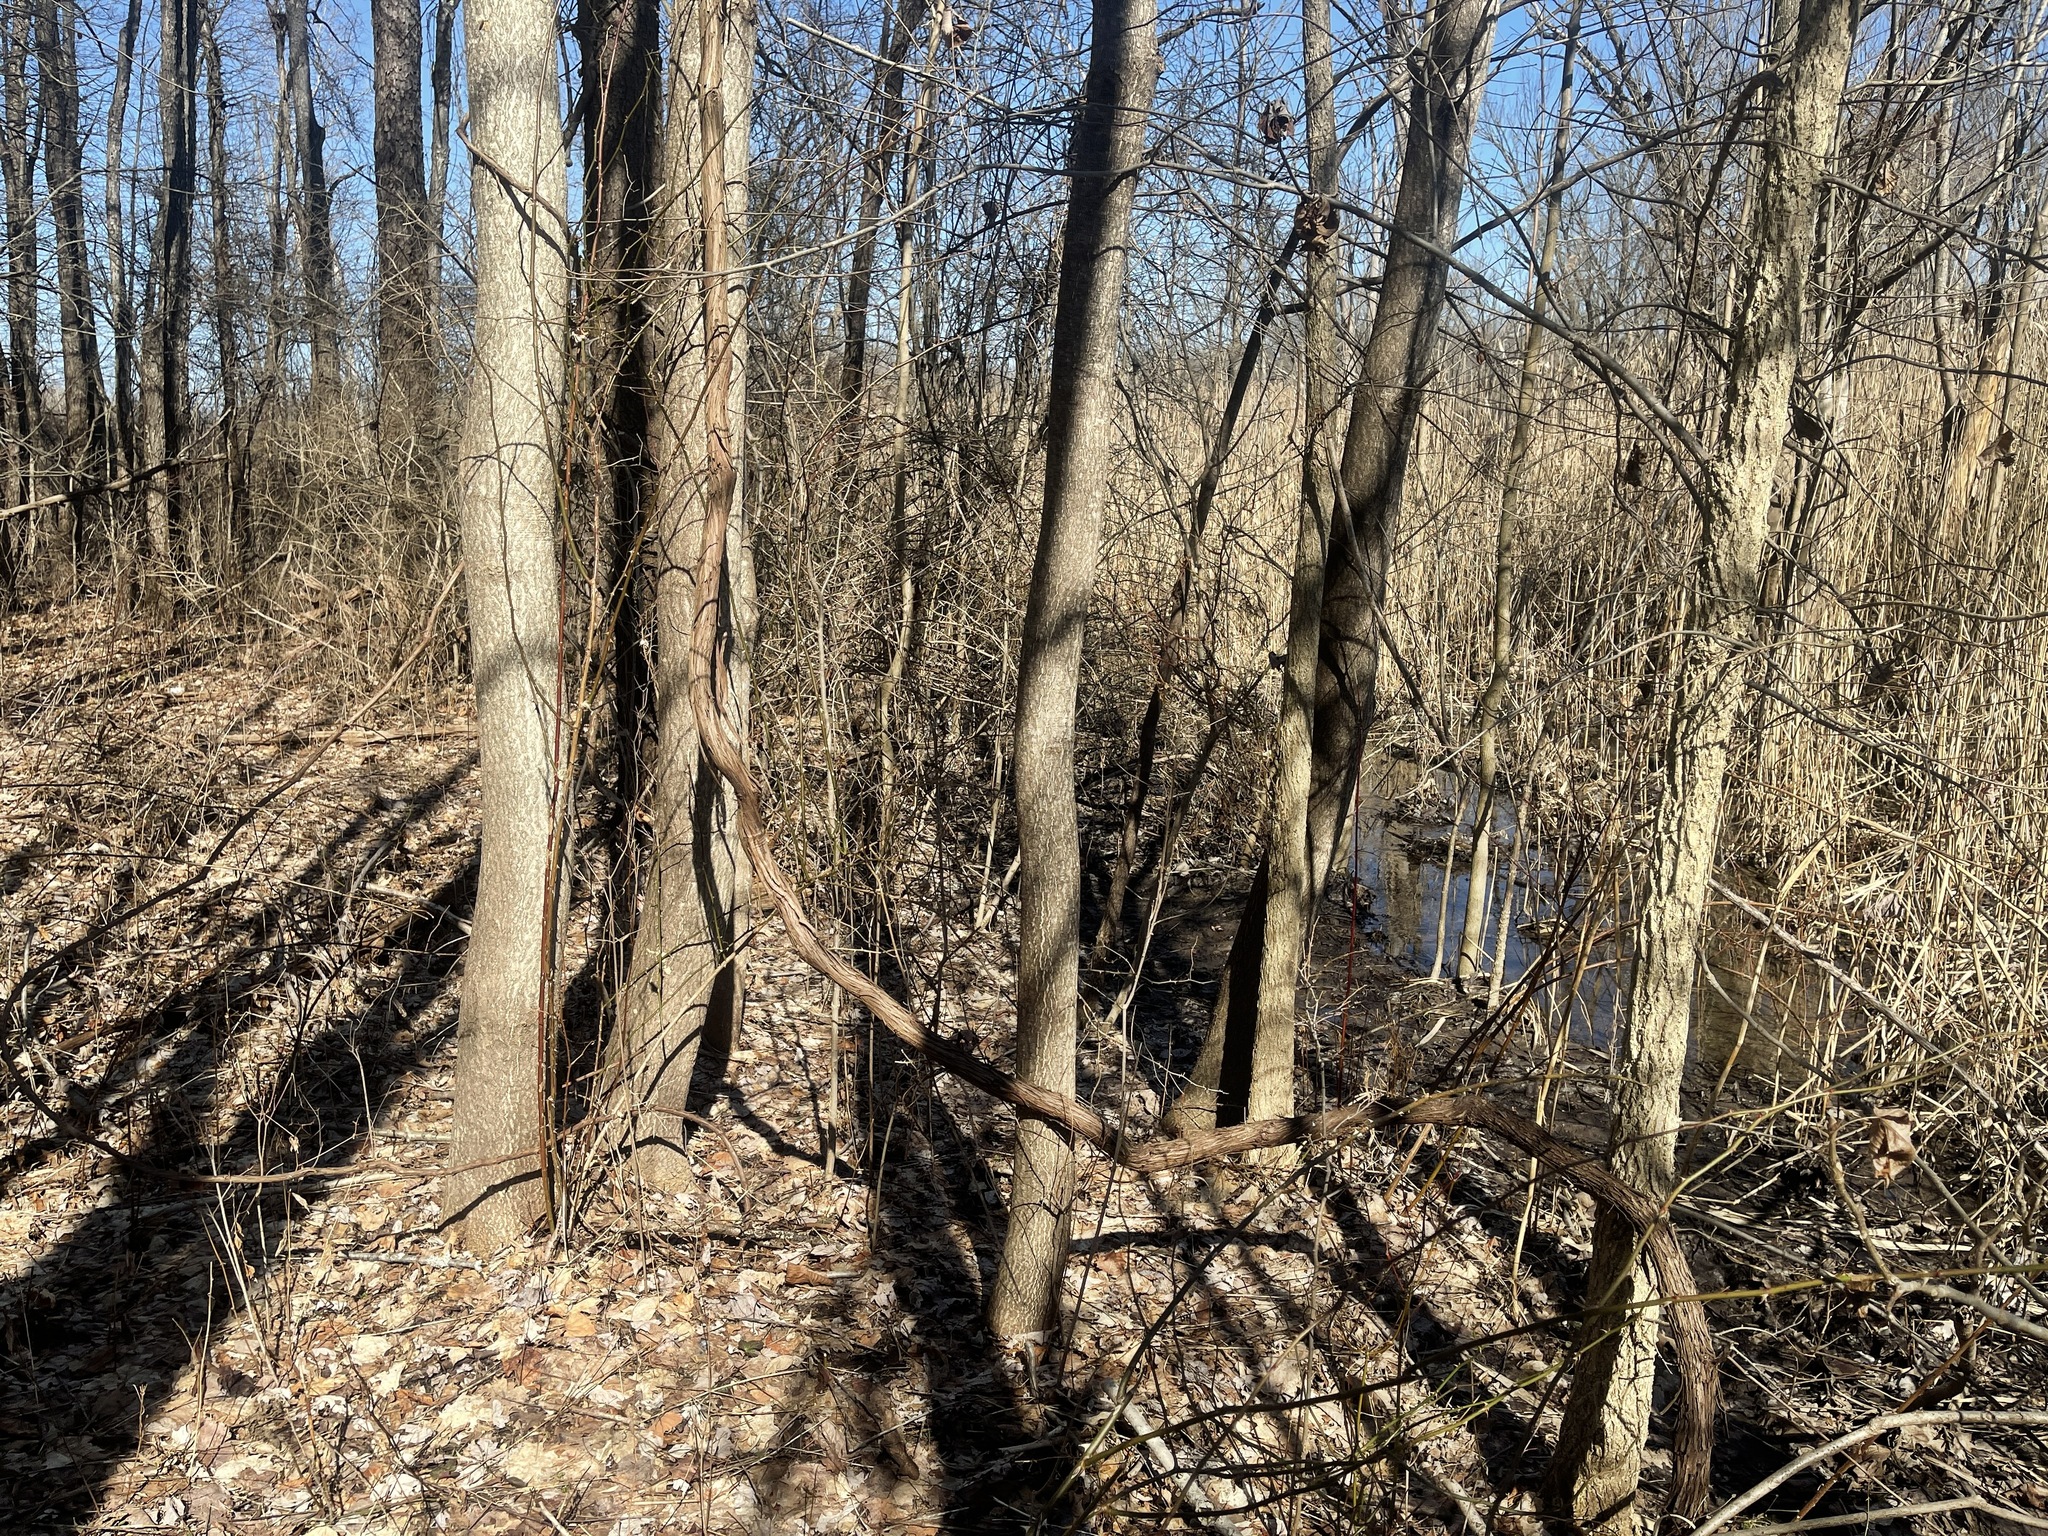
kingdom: Plantae
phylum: Tracheophyta
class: Magnoliopsida
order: Sapindales
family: Simaroubaceae
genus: Ailanthus
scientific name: Ailanthus altissima
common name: Tree-of-heaven
